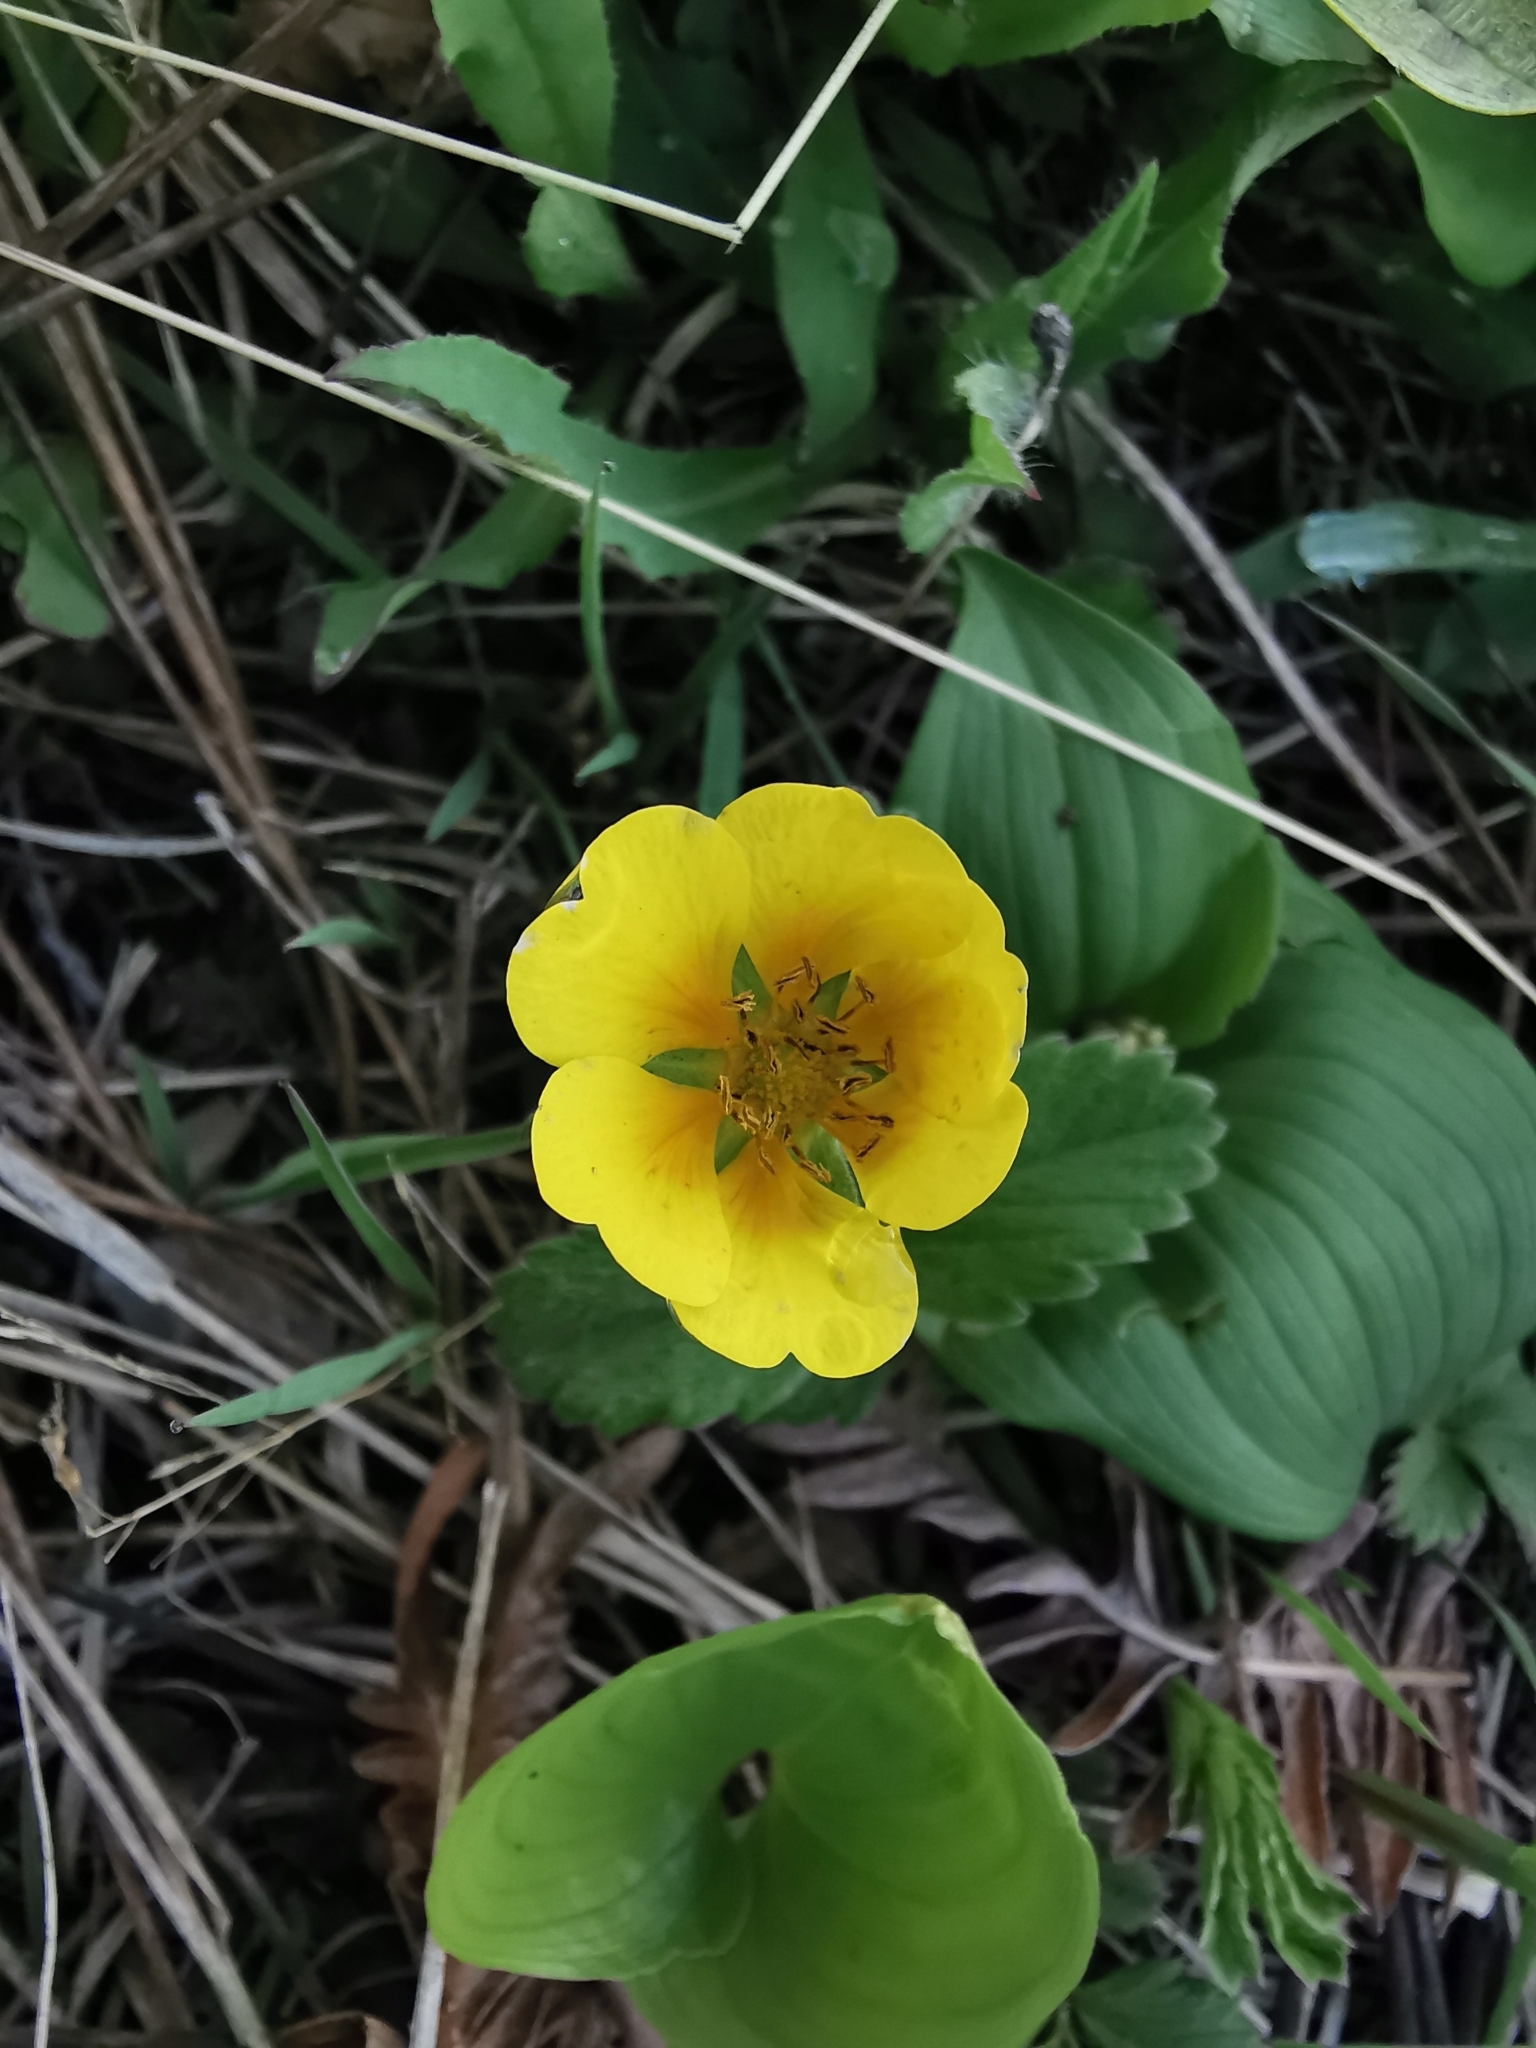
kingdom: Plantae
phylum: Tracheophyta
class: Magnoliopsida
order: Rosales
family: Rosaceae
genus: Potentilla
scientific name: Potentilla stolonifera
